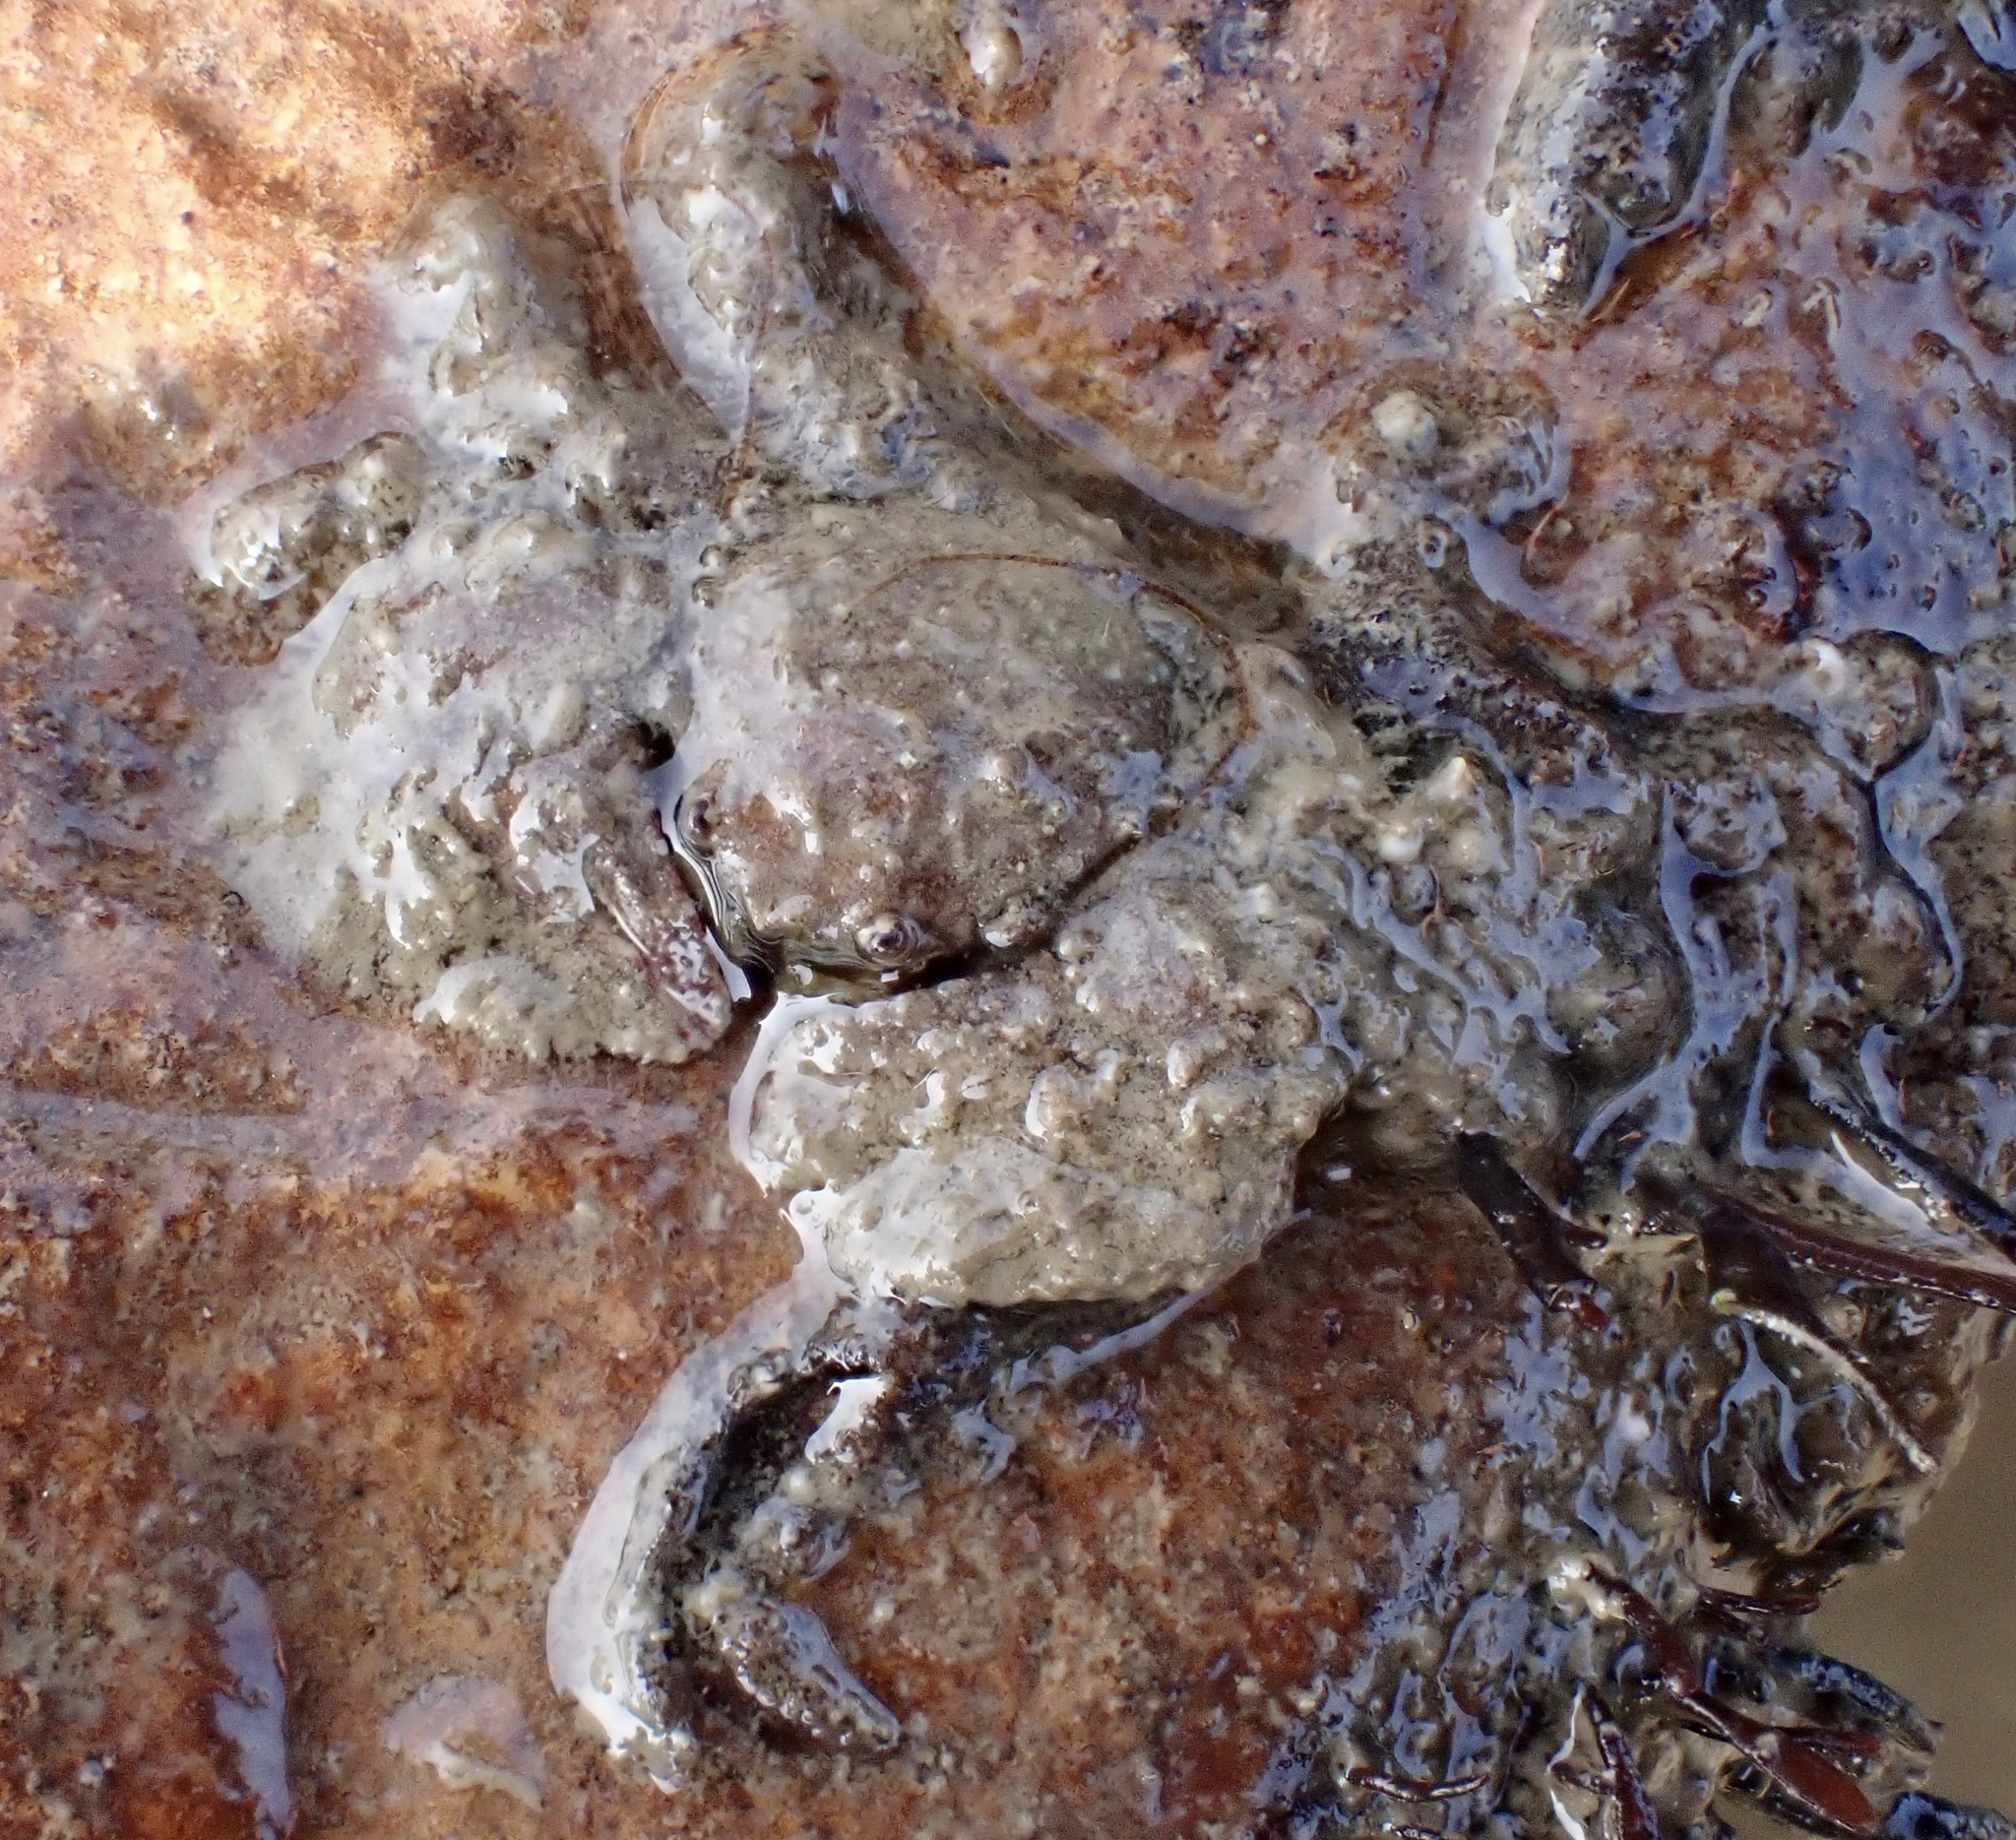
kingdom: Animalia
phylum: Arthropoda
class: Malacostraca
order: Decapoda
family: Porcellanidae
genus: Porcellana
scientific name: Porcellana platycheles
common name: Porcelain crab
